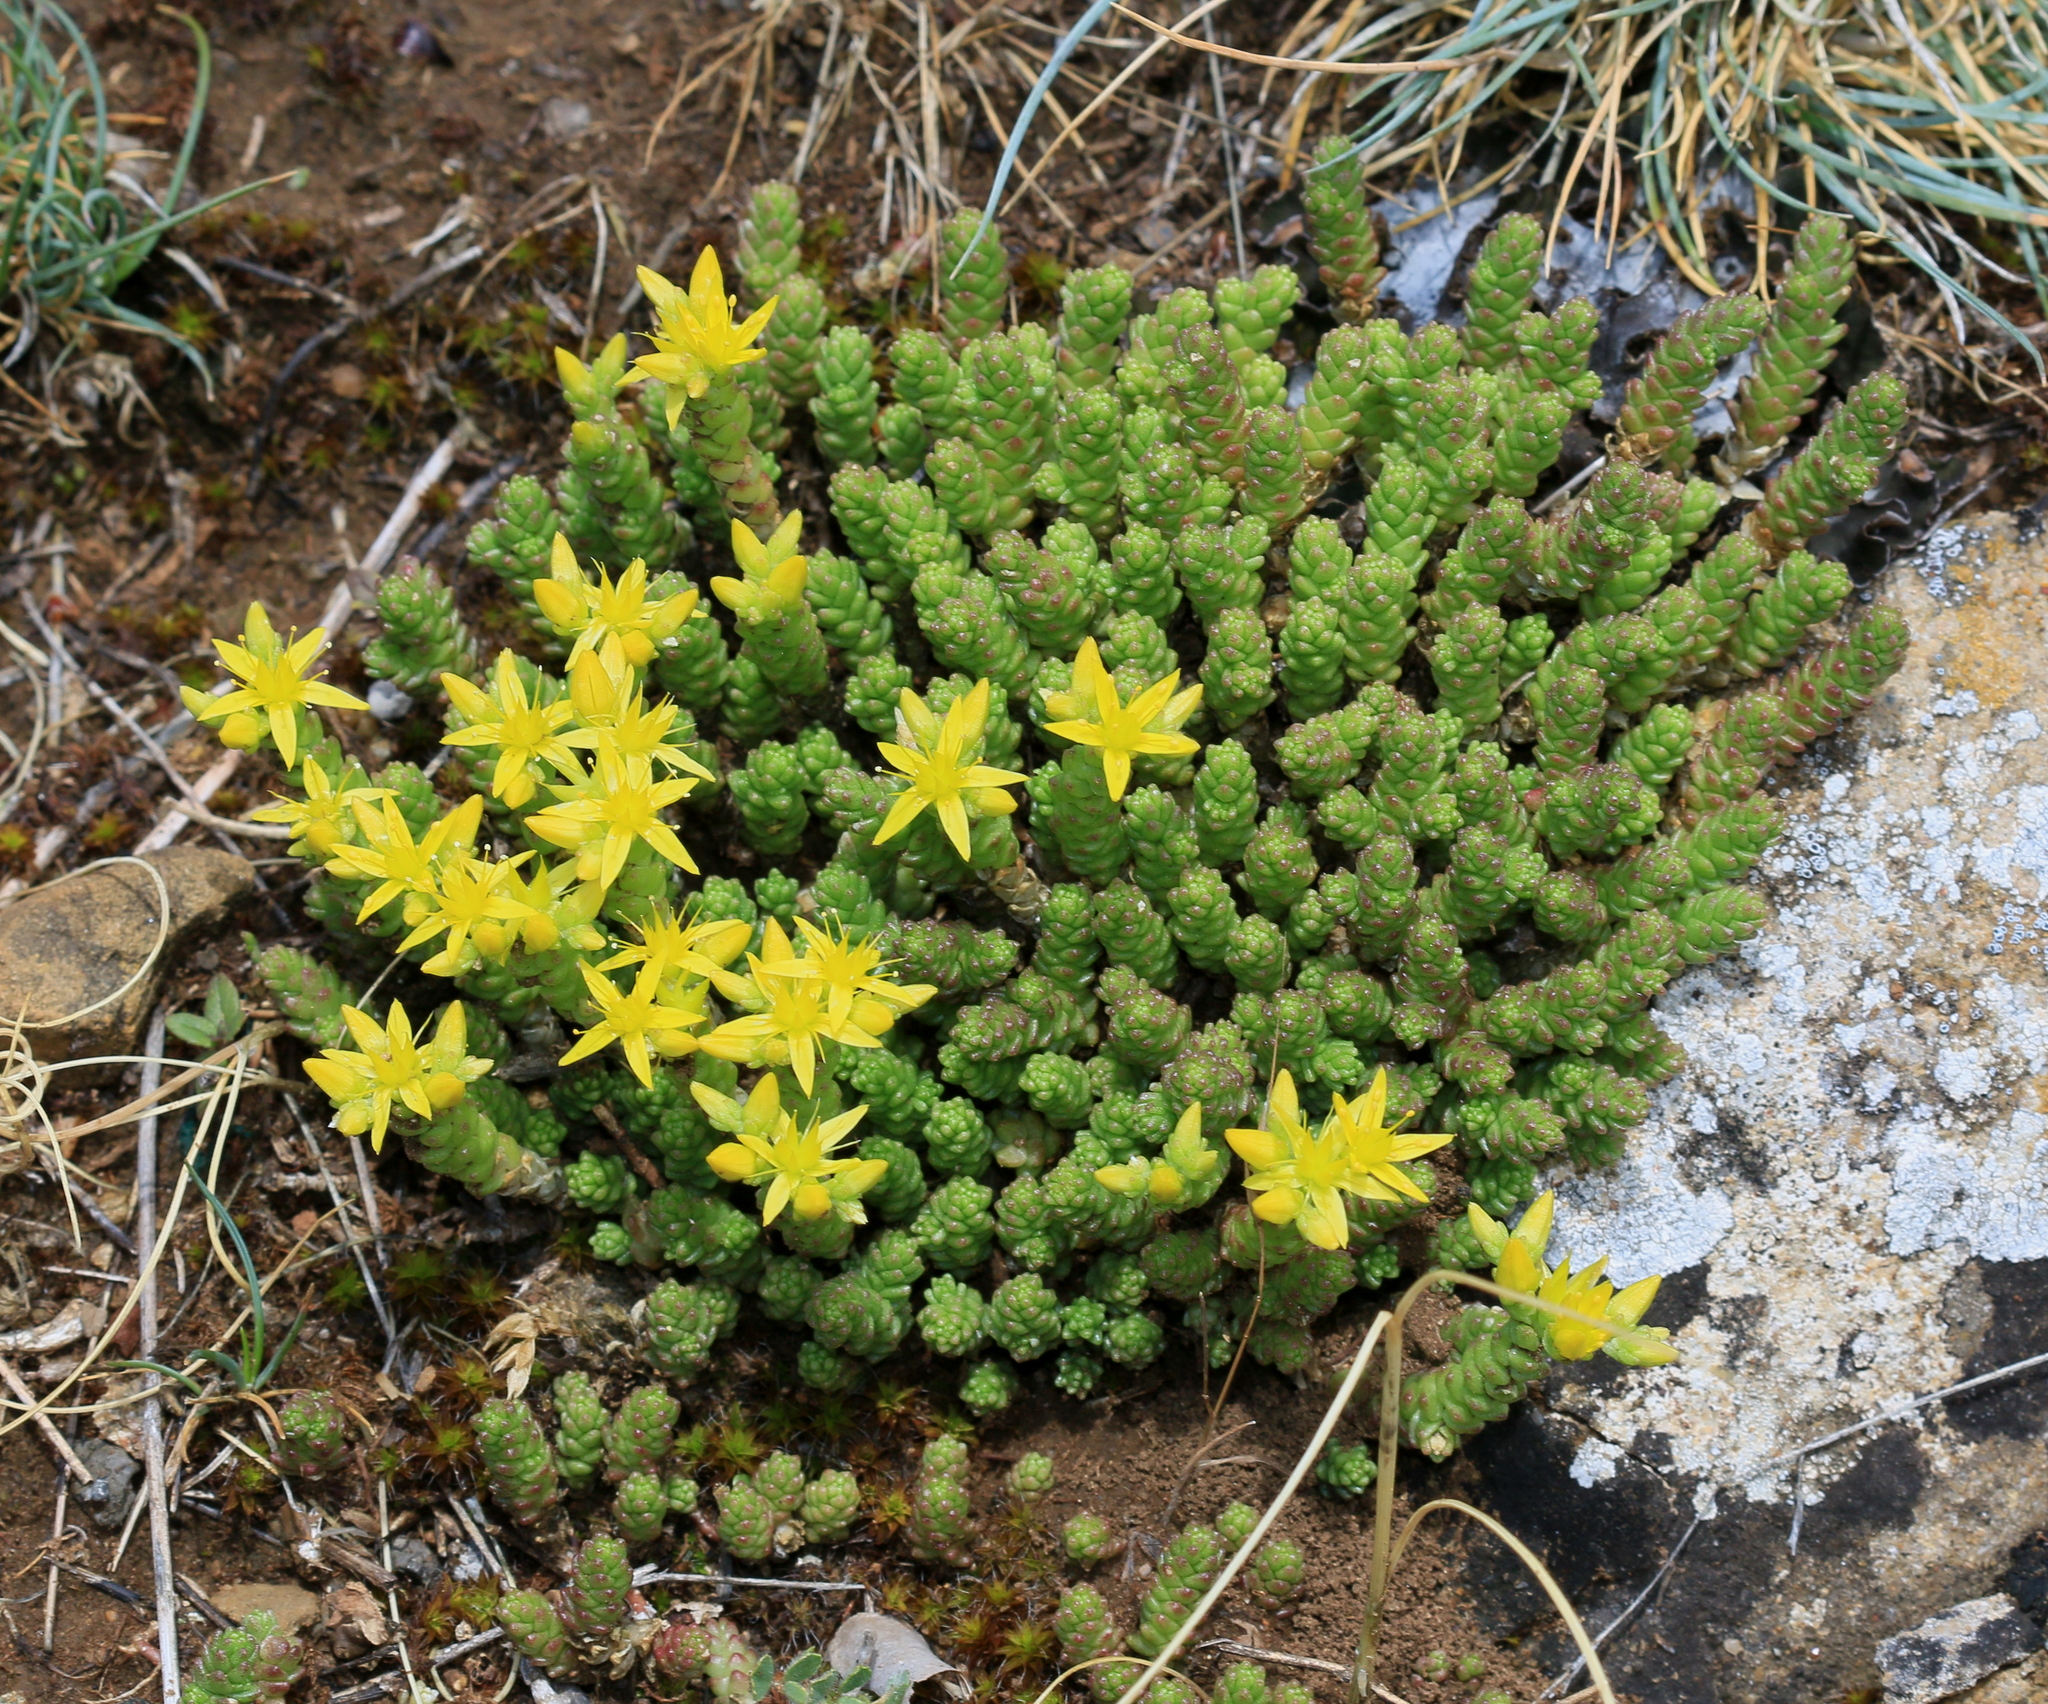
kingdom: Plantae
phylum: Tracheophyta
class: Magnoliopsida
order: Saxifragales
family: Crassulaceae
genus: Sedum
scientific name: Sedum acre
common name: Biting stonecrop
